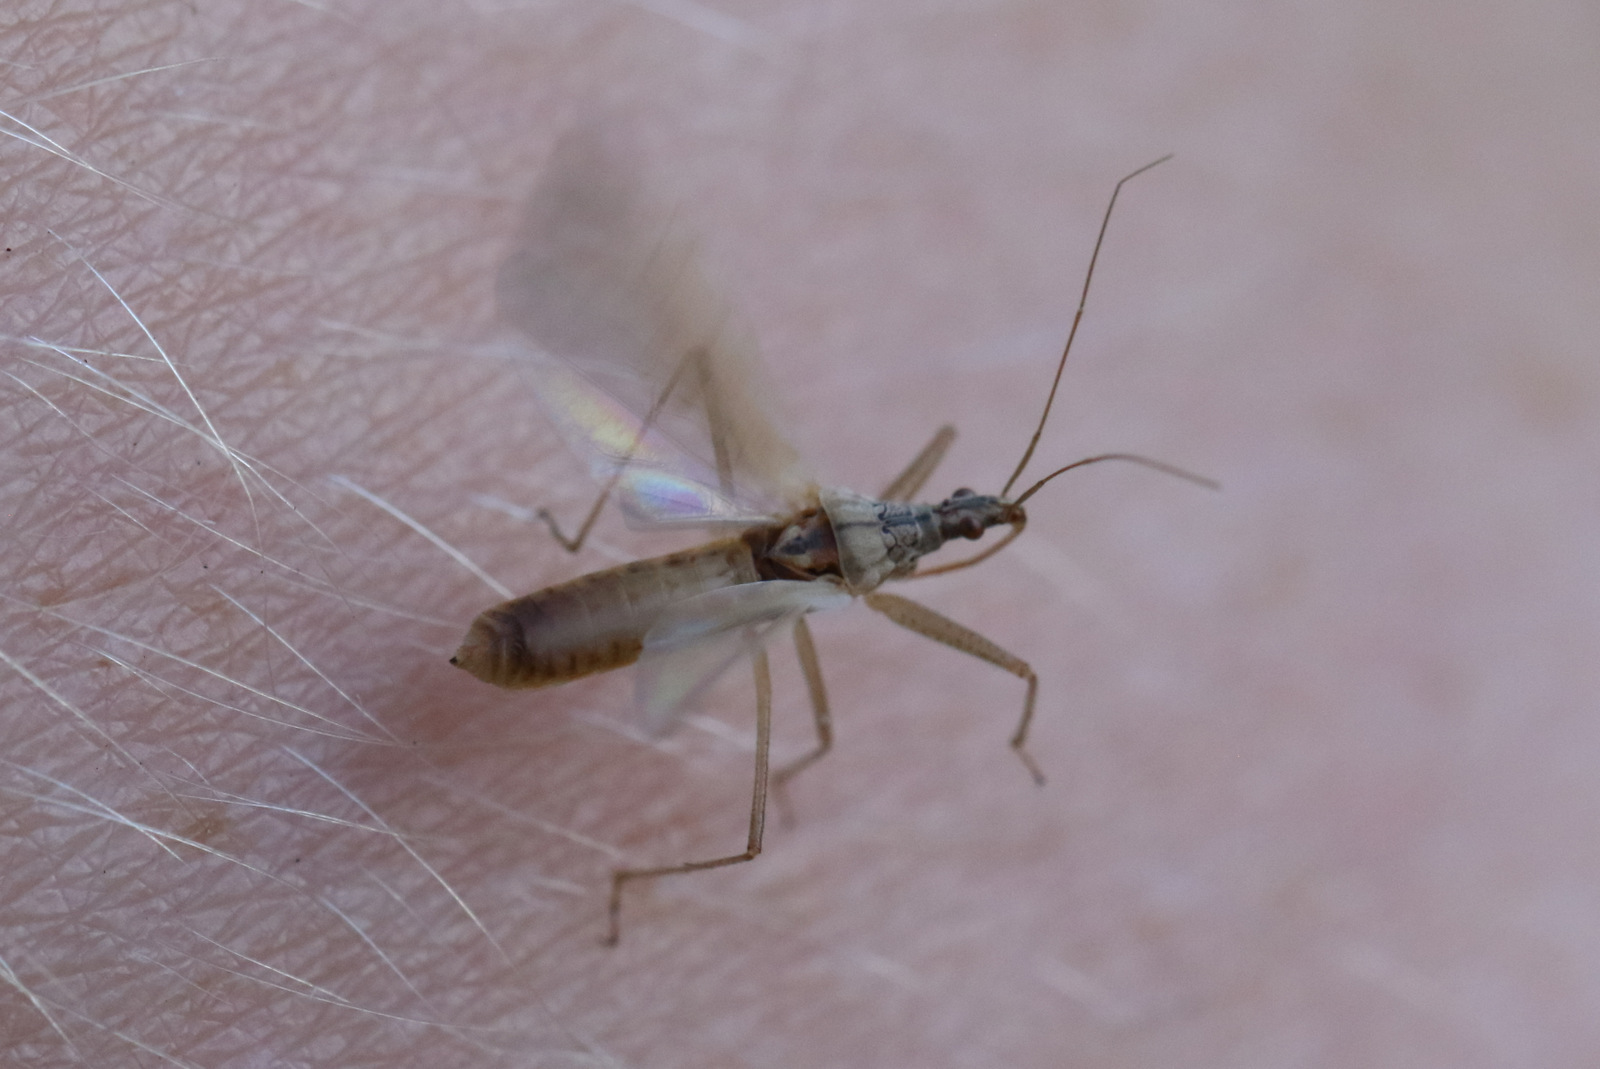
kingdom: Animalia
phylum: Arthropoda
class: Insecta
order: Hemiptera
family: Nabidae
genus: Nabis
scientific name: Nabis kinbergii
